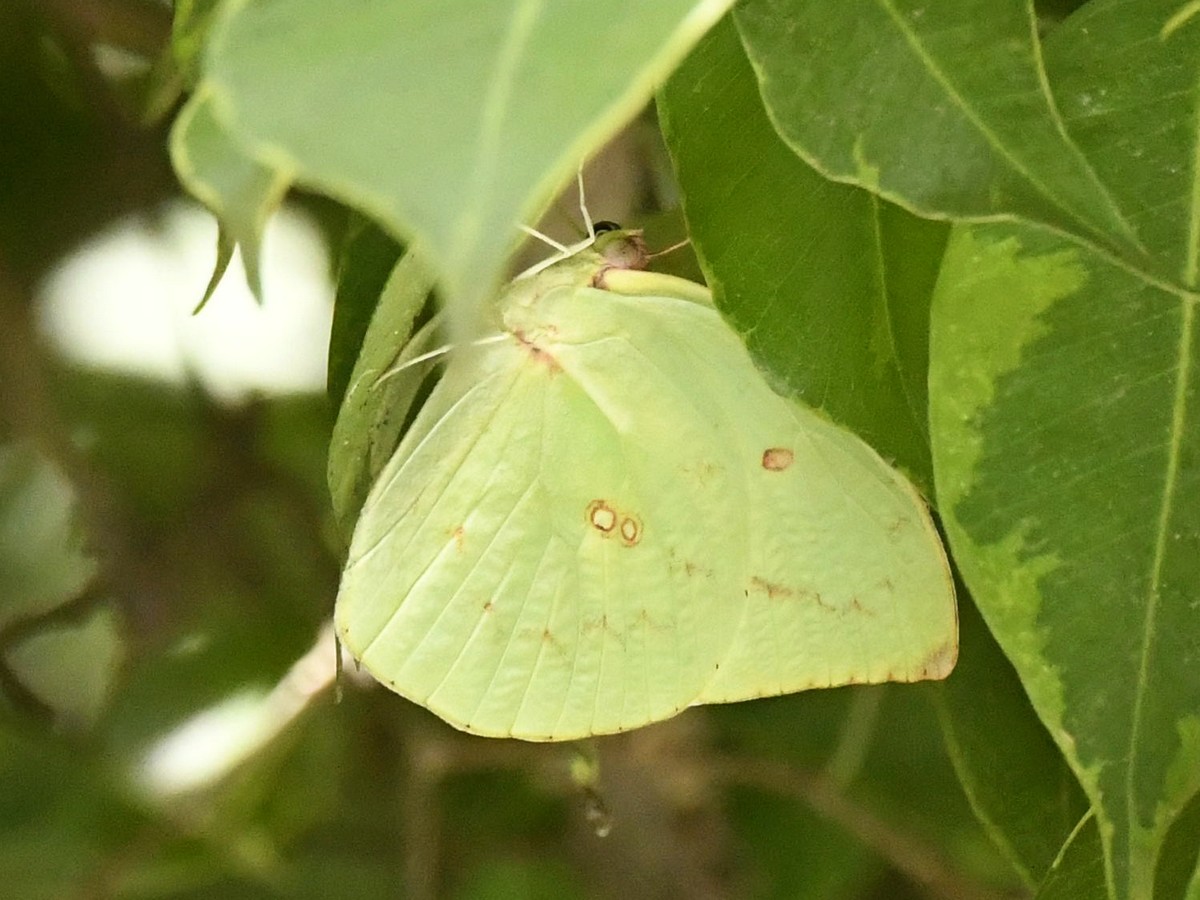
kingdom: Animalia
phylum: Arthropoda
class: Insecta
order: Lepidoptera
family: Pieridae
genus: Catopsilia
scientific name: Catopsilia pomona
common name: Common emigrant
